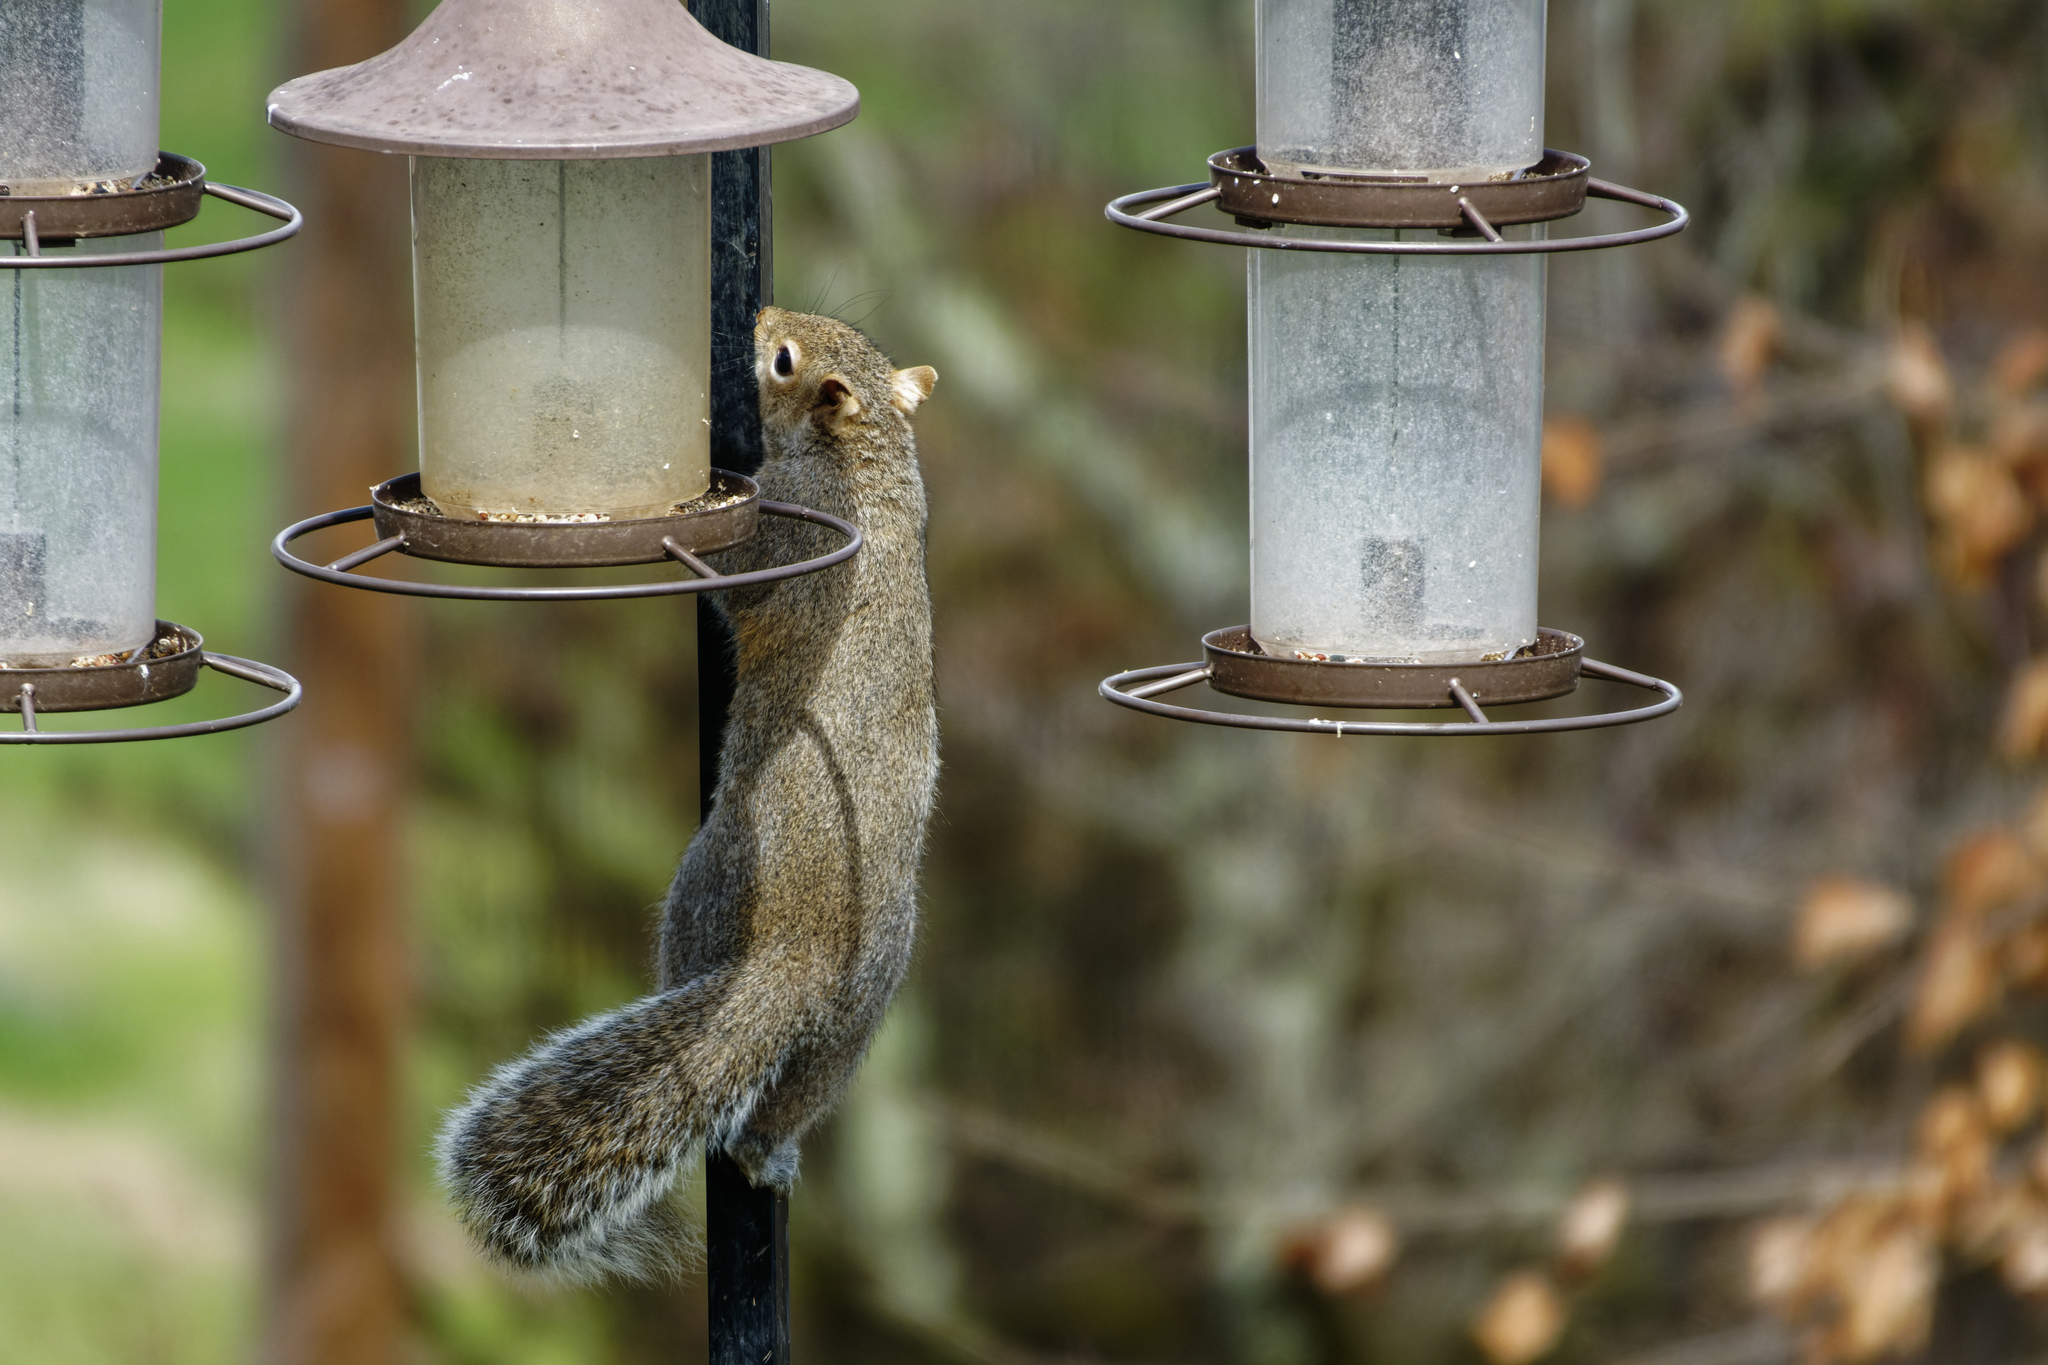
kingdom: Animalia
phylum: Chordata
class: Mammalia
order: Rodentia
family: Sciuridae
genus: Sciurus
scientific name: Sciurus carolinensis
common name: Eastern gray squirrel
